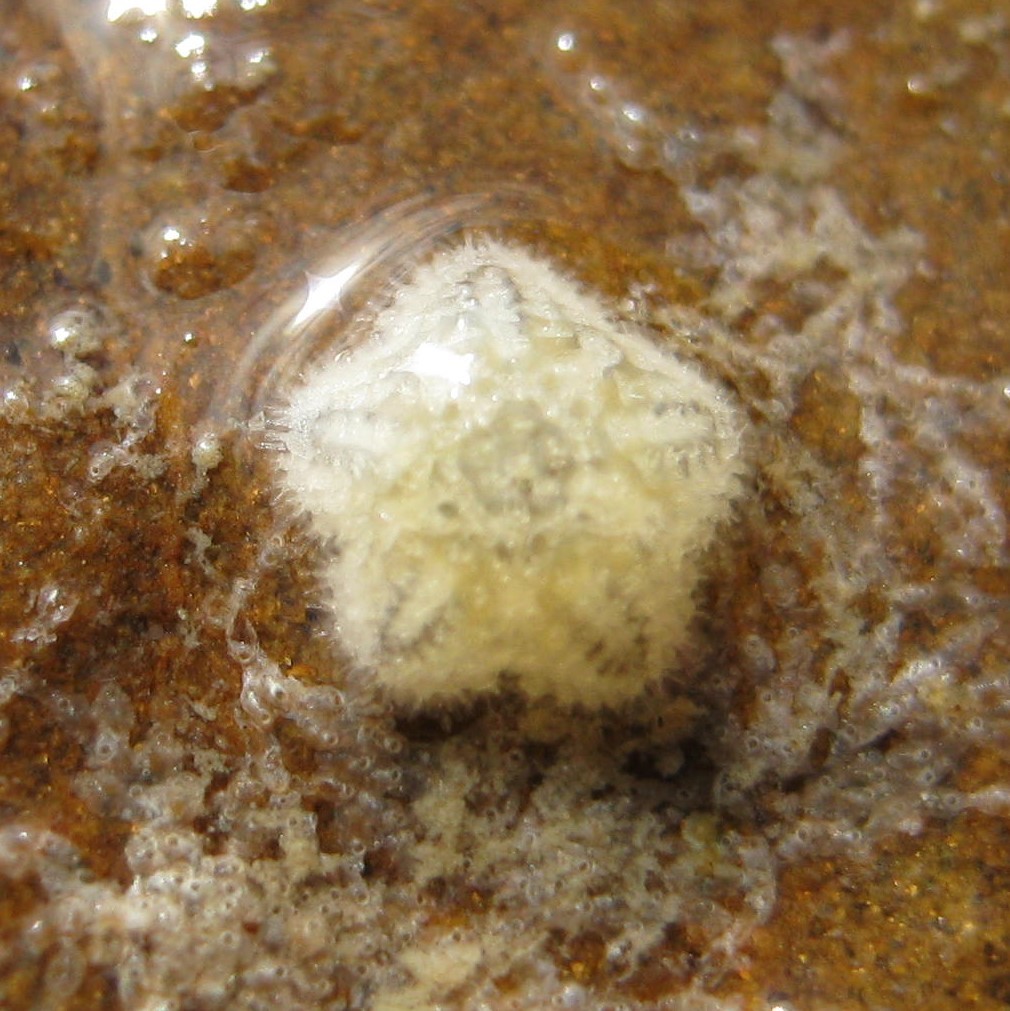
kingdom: Animalia
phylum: Echinodermata
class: Asteroidea
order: Valvatida
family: Asterinidae
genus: Patiriella
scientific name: Patiriella regularis
